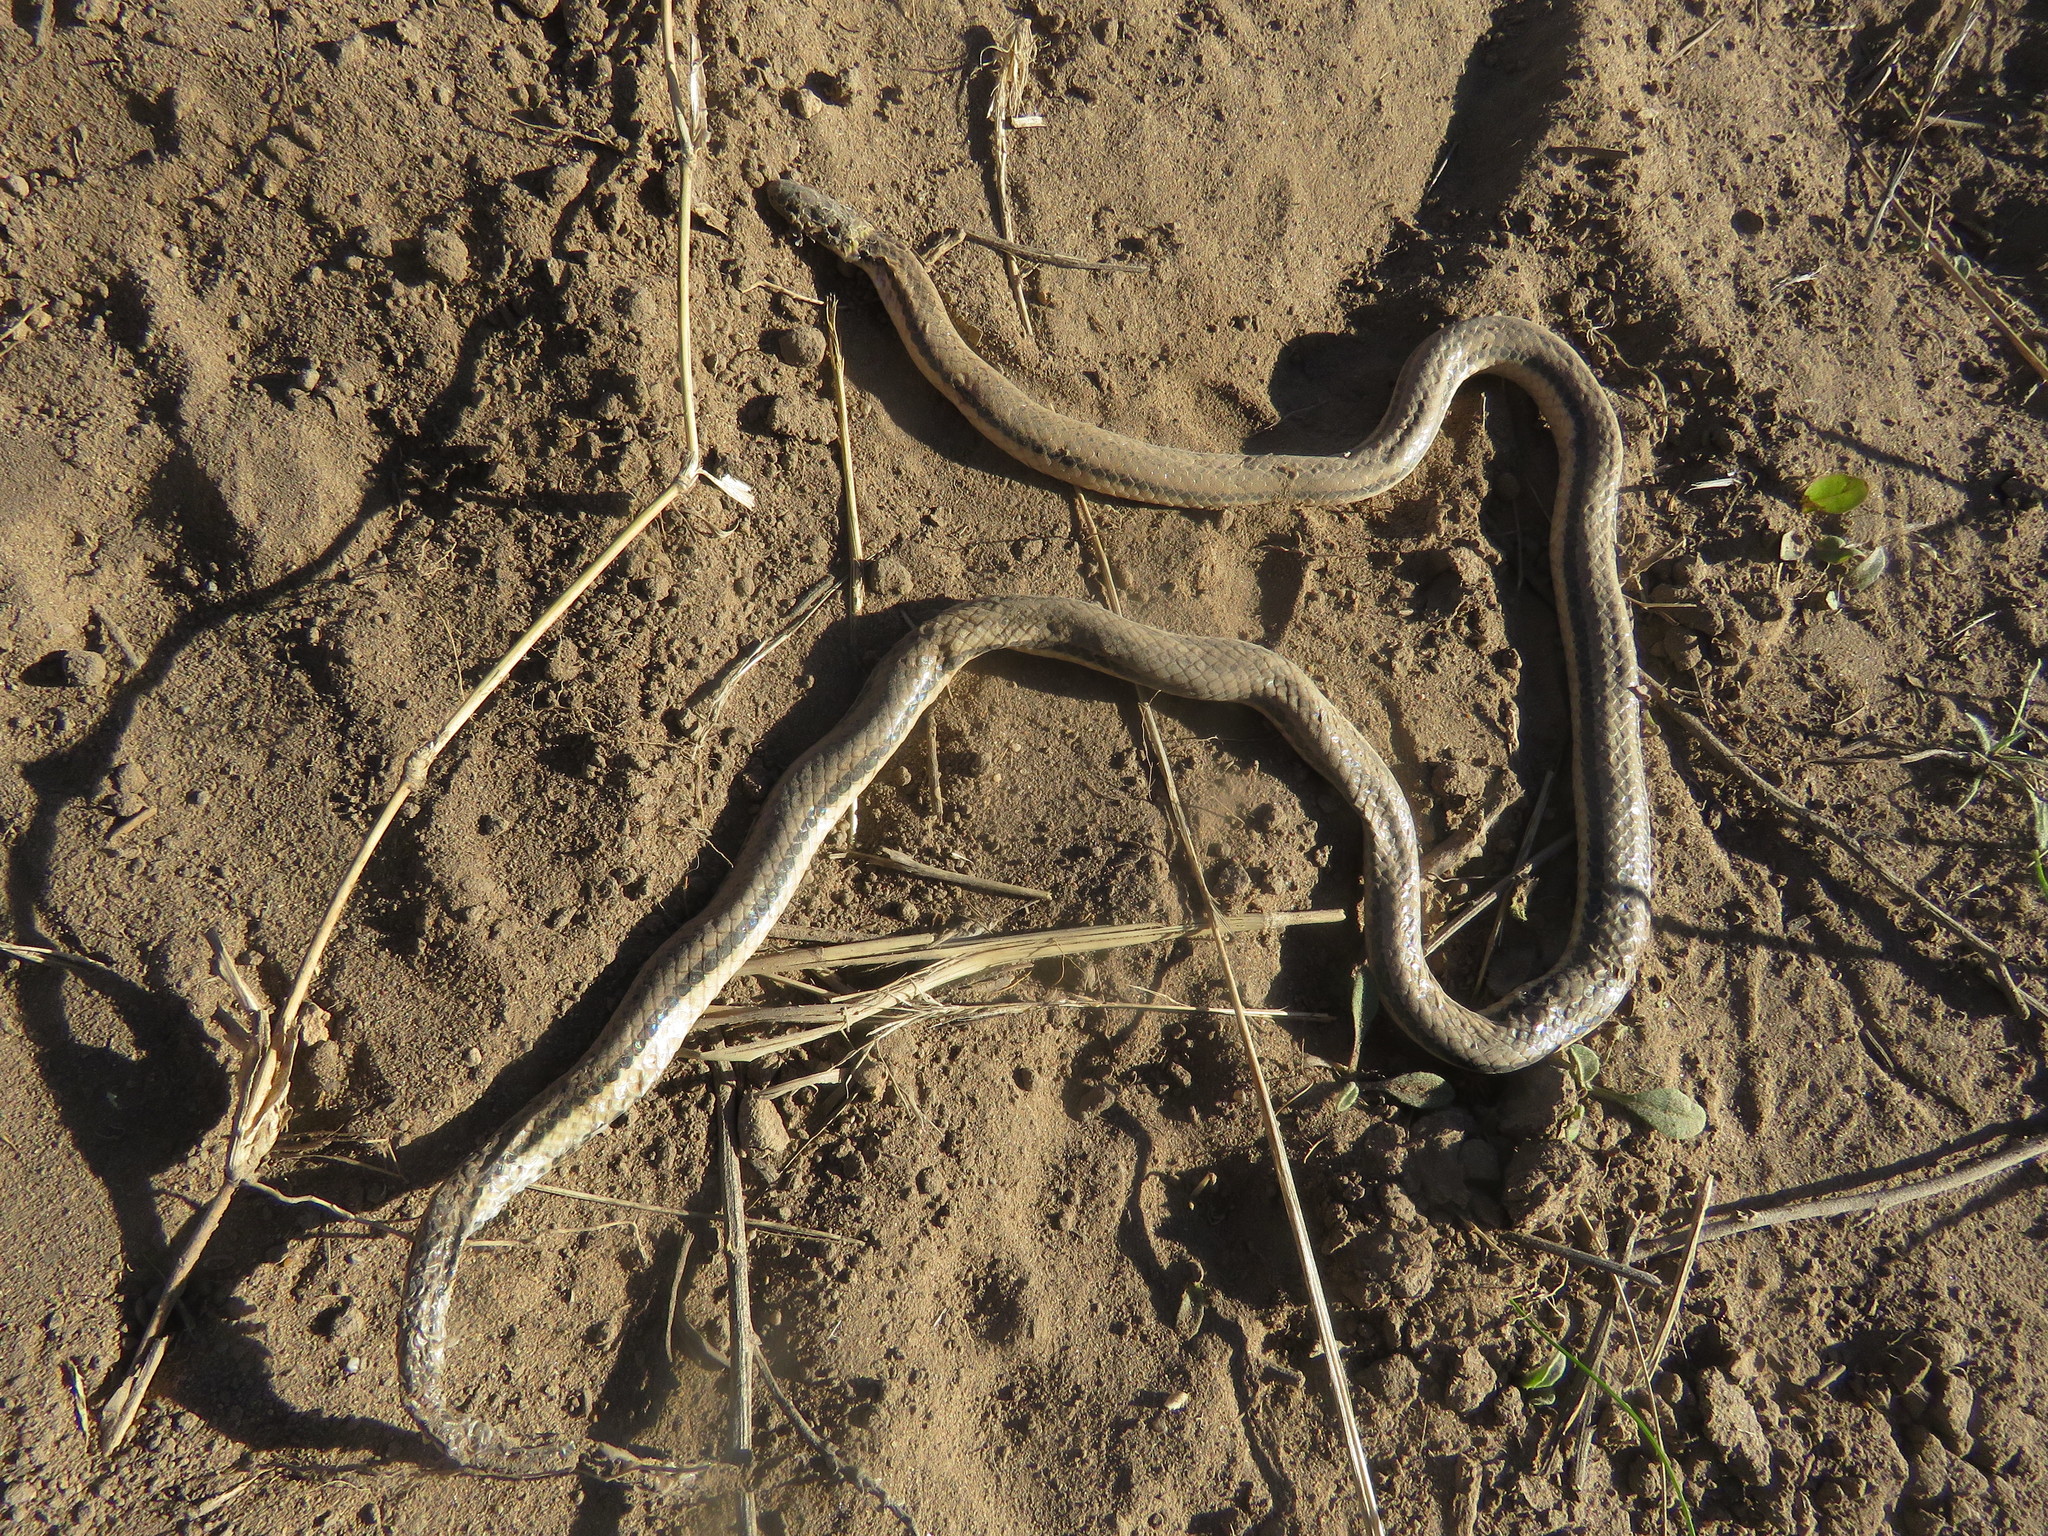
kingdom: Animalia
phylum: Chordata
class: Squamata
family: Colubridae
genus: Phalotris
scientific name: Phalotris lemniscatus
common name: Dumeril's diadem snake
